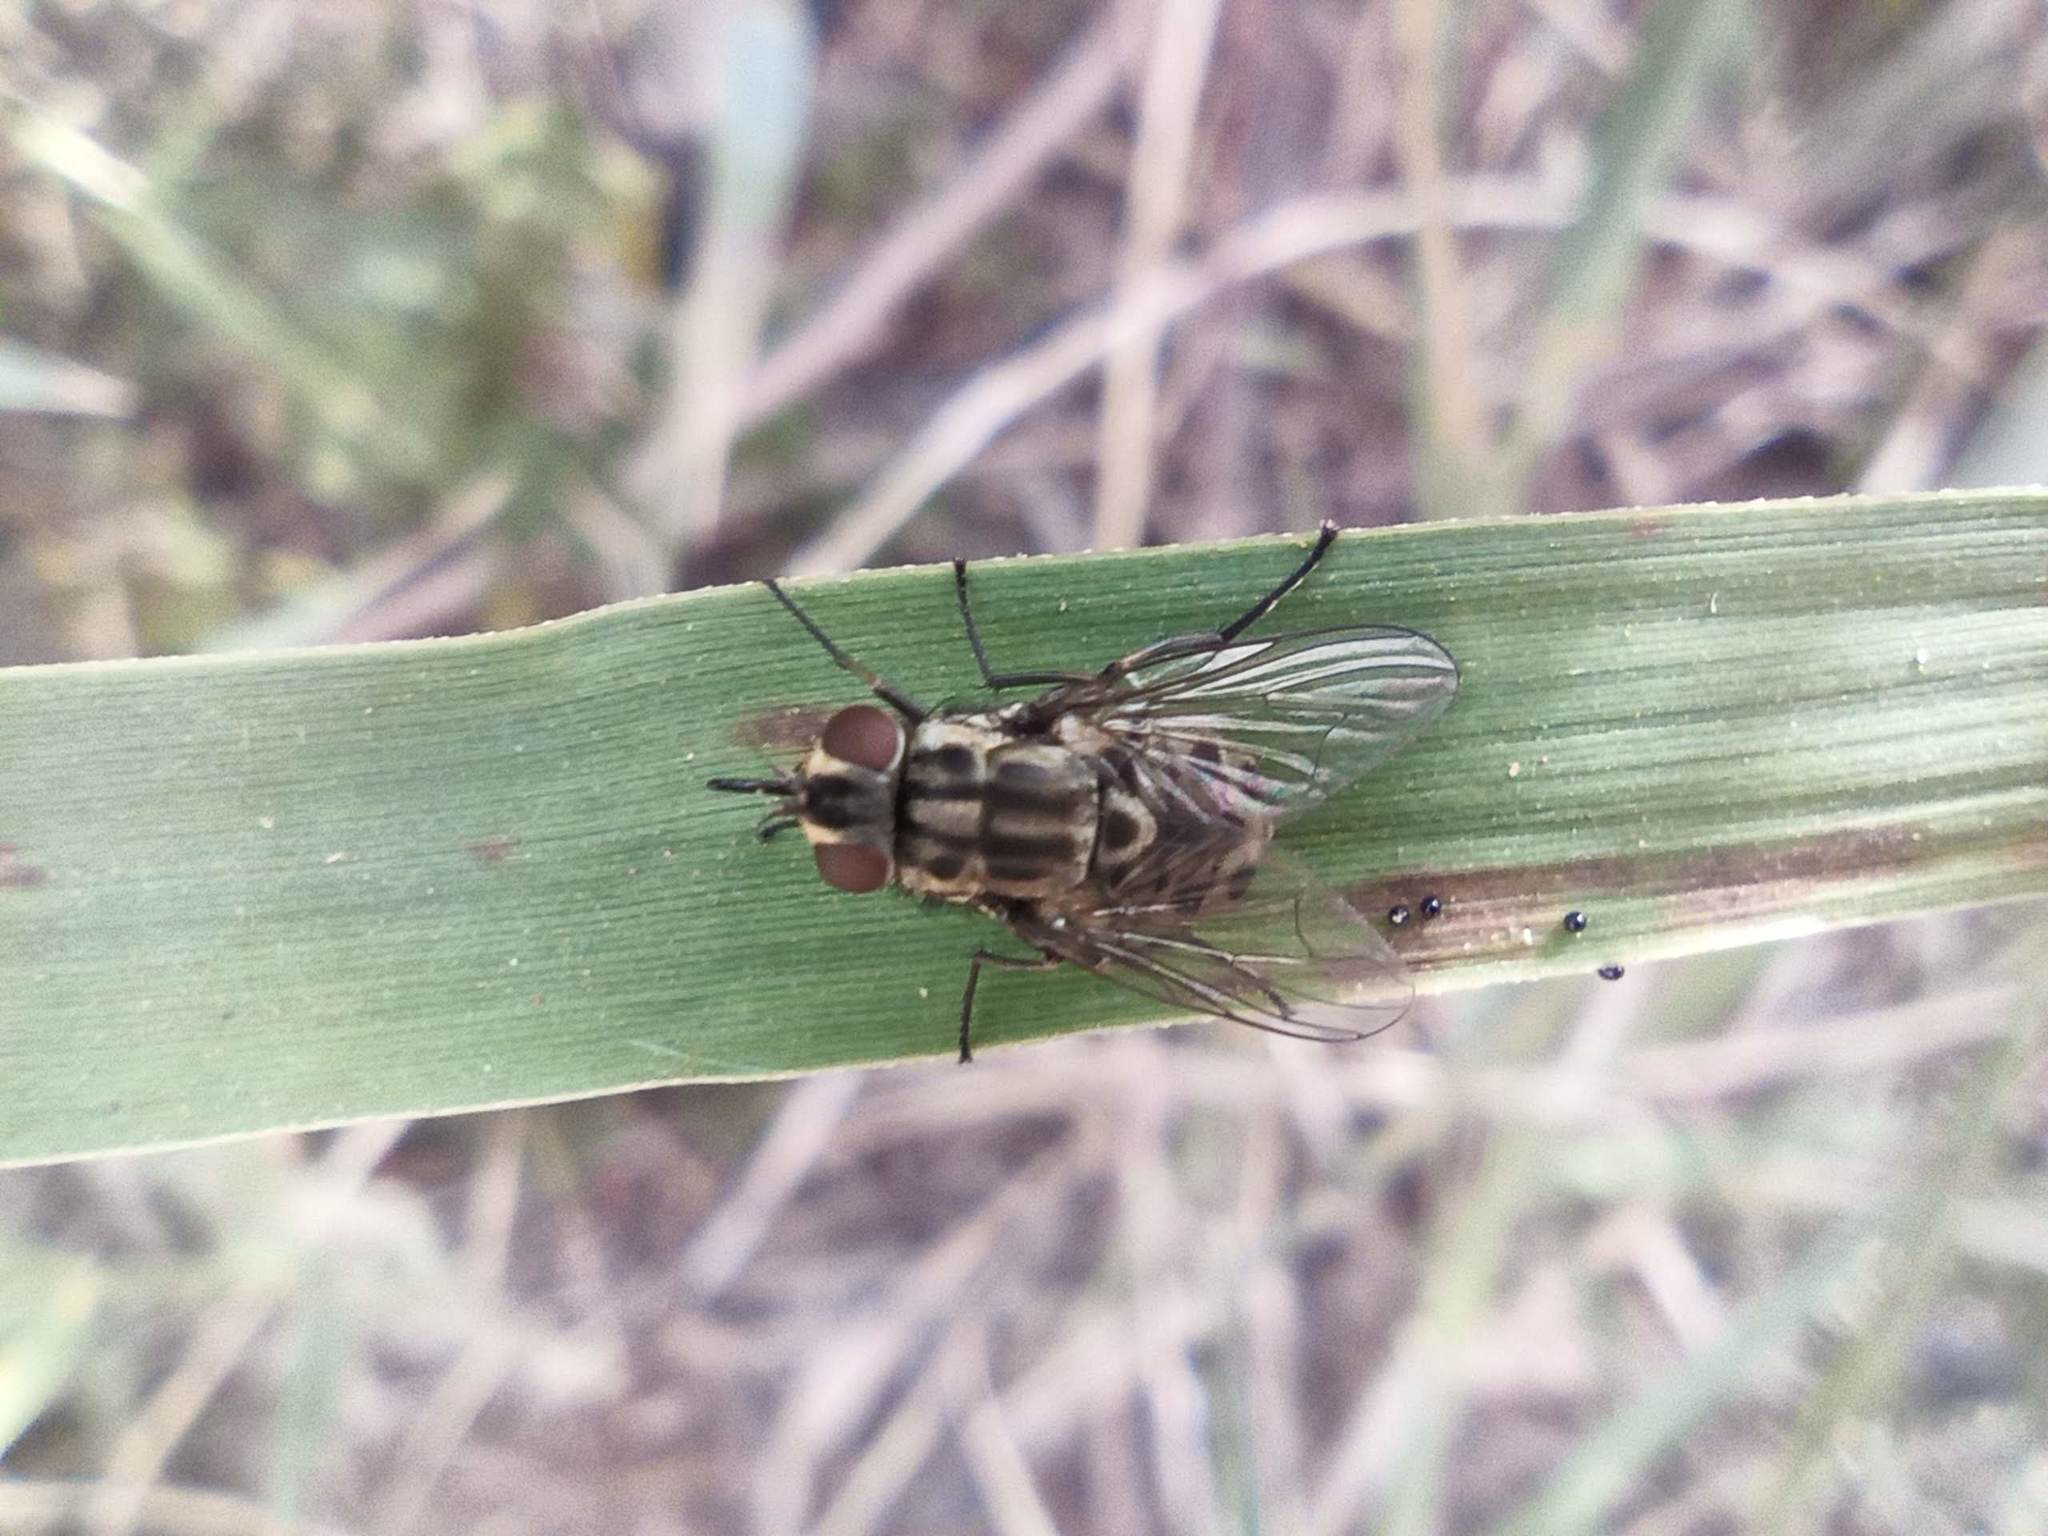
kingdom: Animalia
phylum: Arthropoda
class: Insecta
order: Diptera
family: Muscidae
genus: Stomoxys
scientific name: Stomoxys calcitrans
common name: Stable fly
